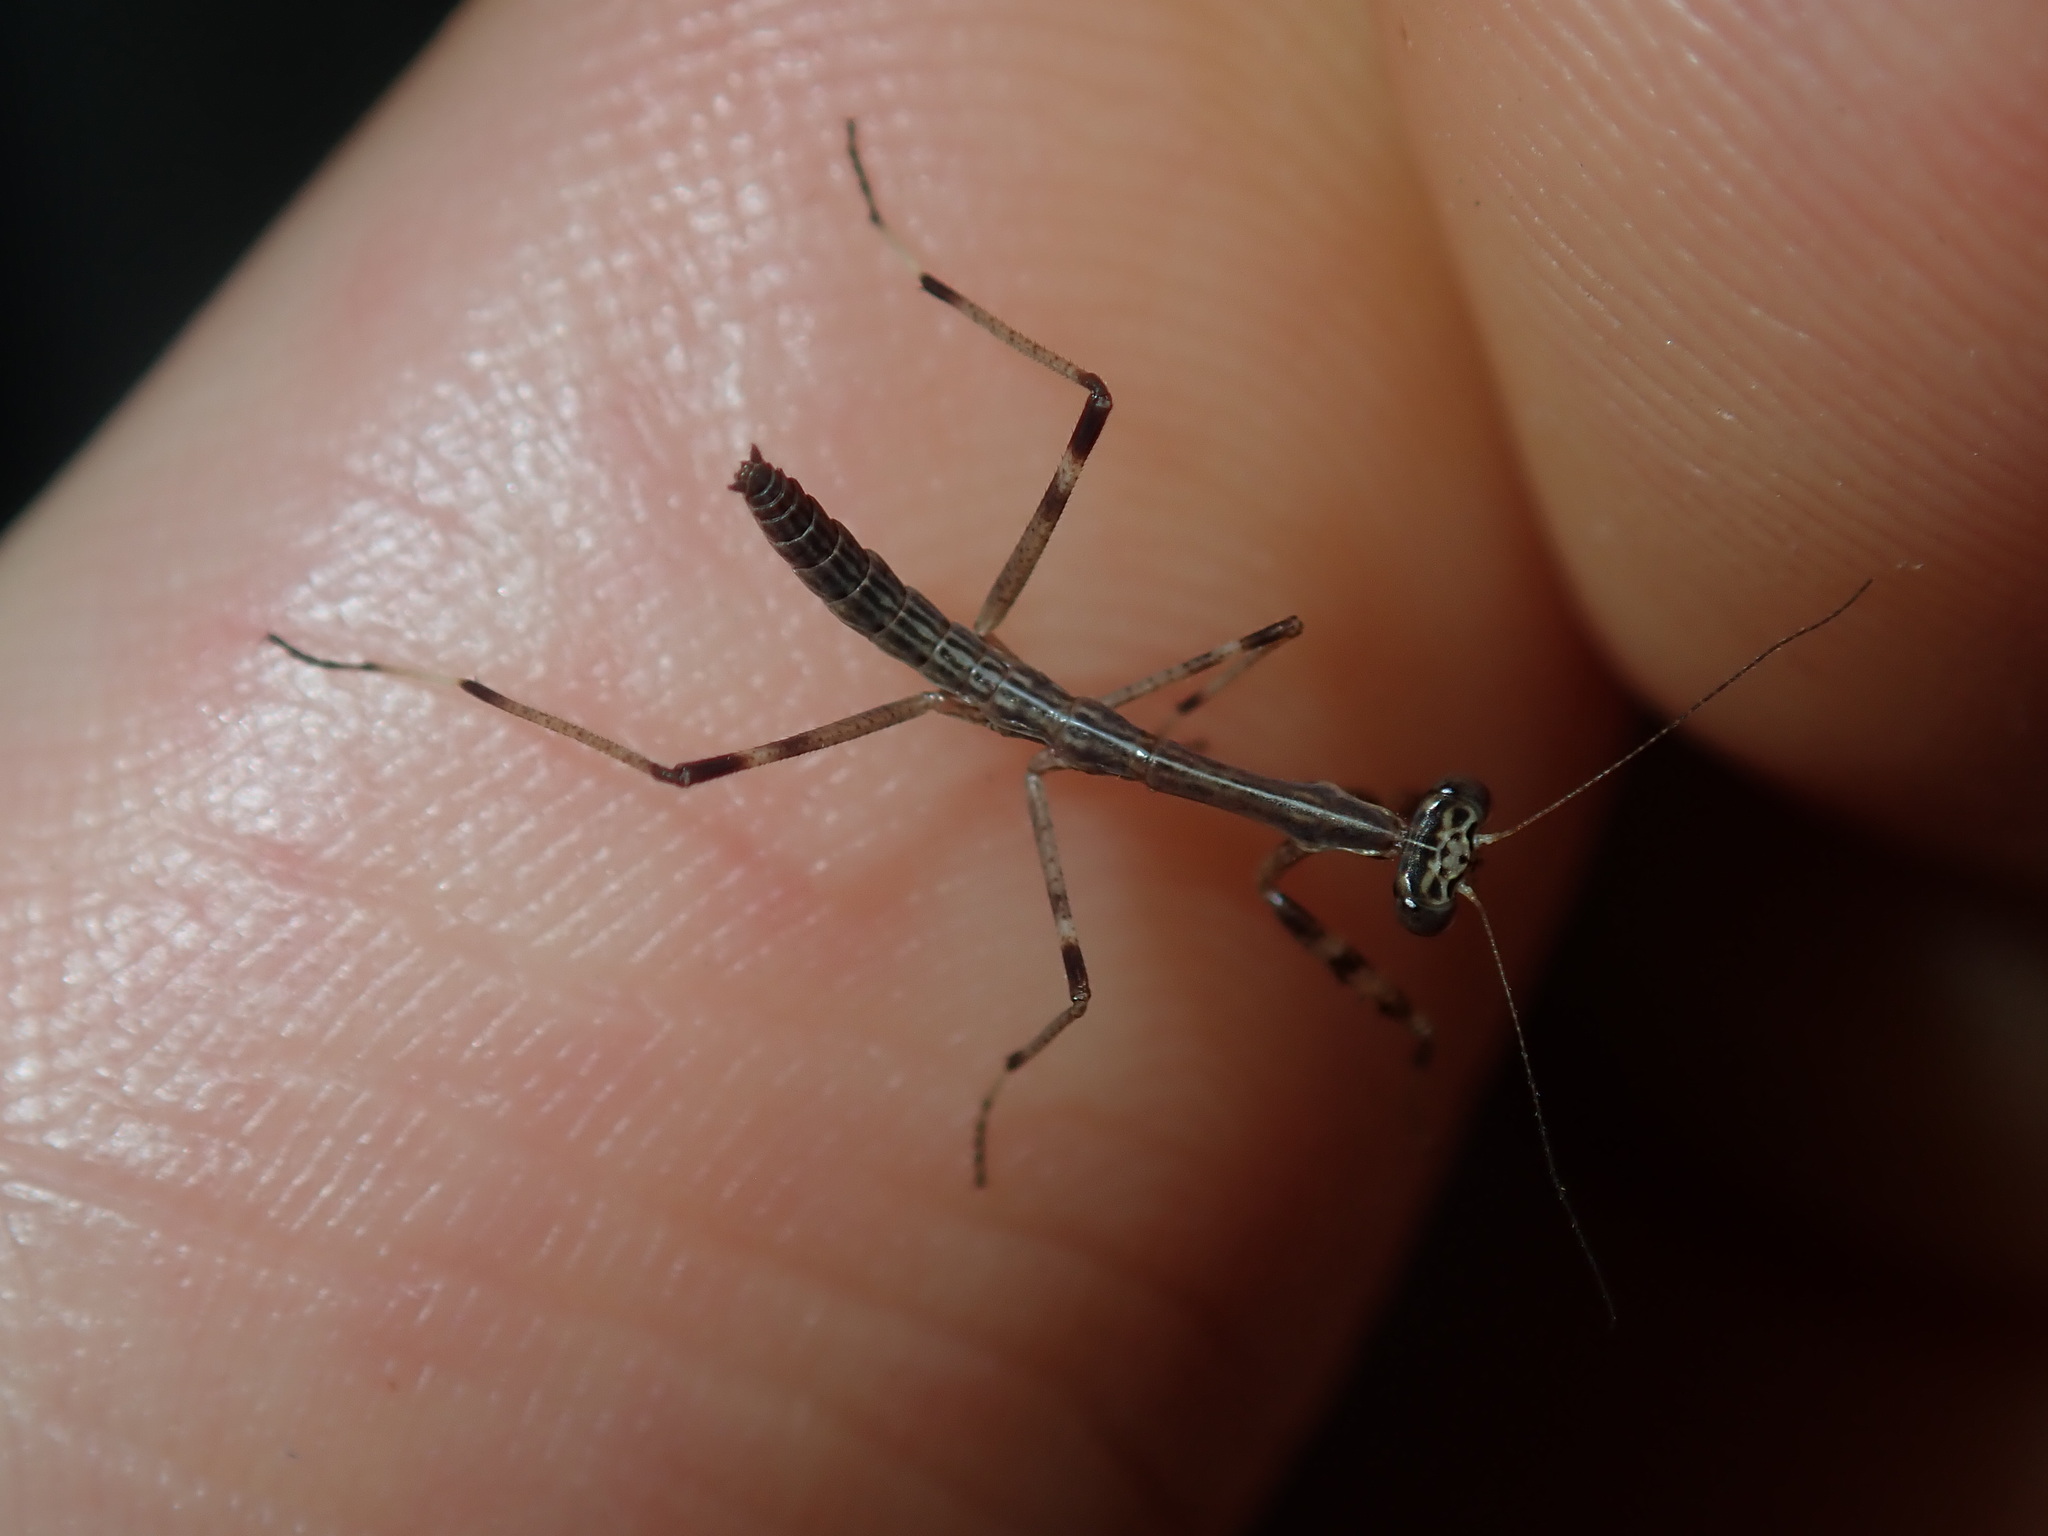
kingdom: Animalia
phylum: Arthropoda
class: Insecta
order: Mantodea
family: Mantidae
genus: Archimantis
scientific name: Archimantis latistyla
